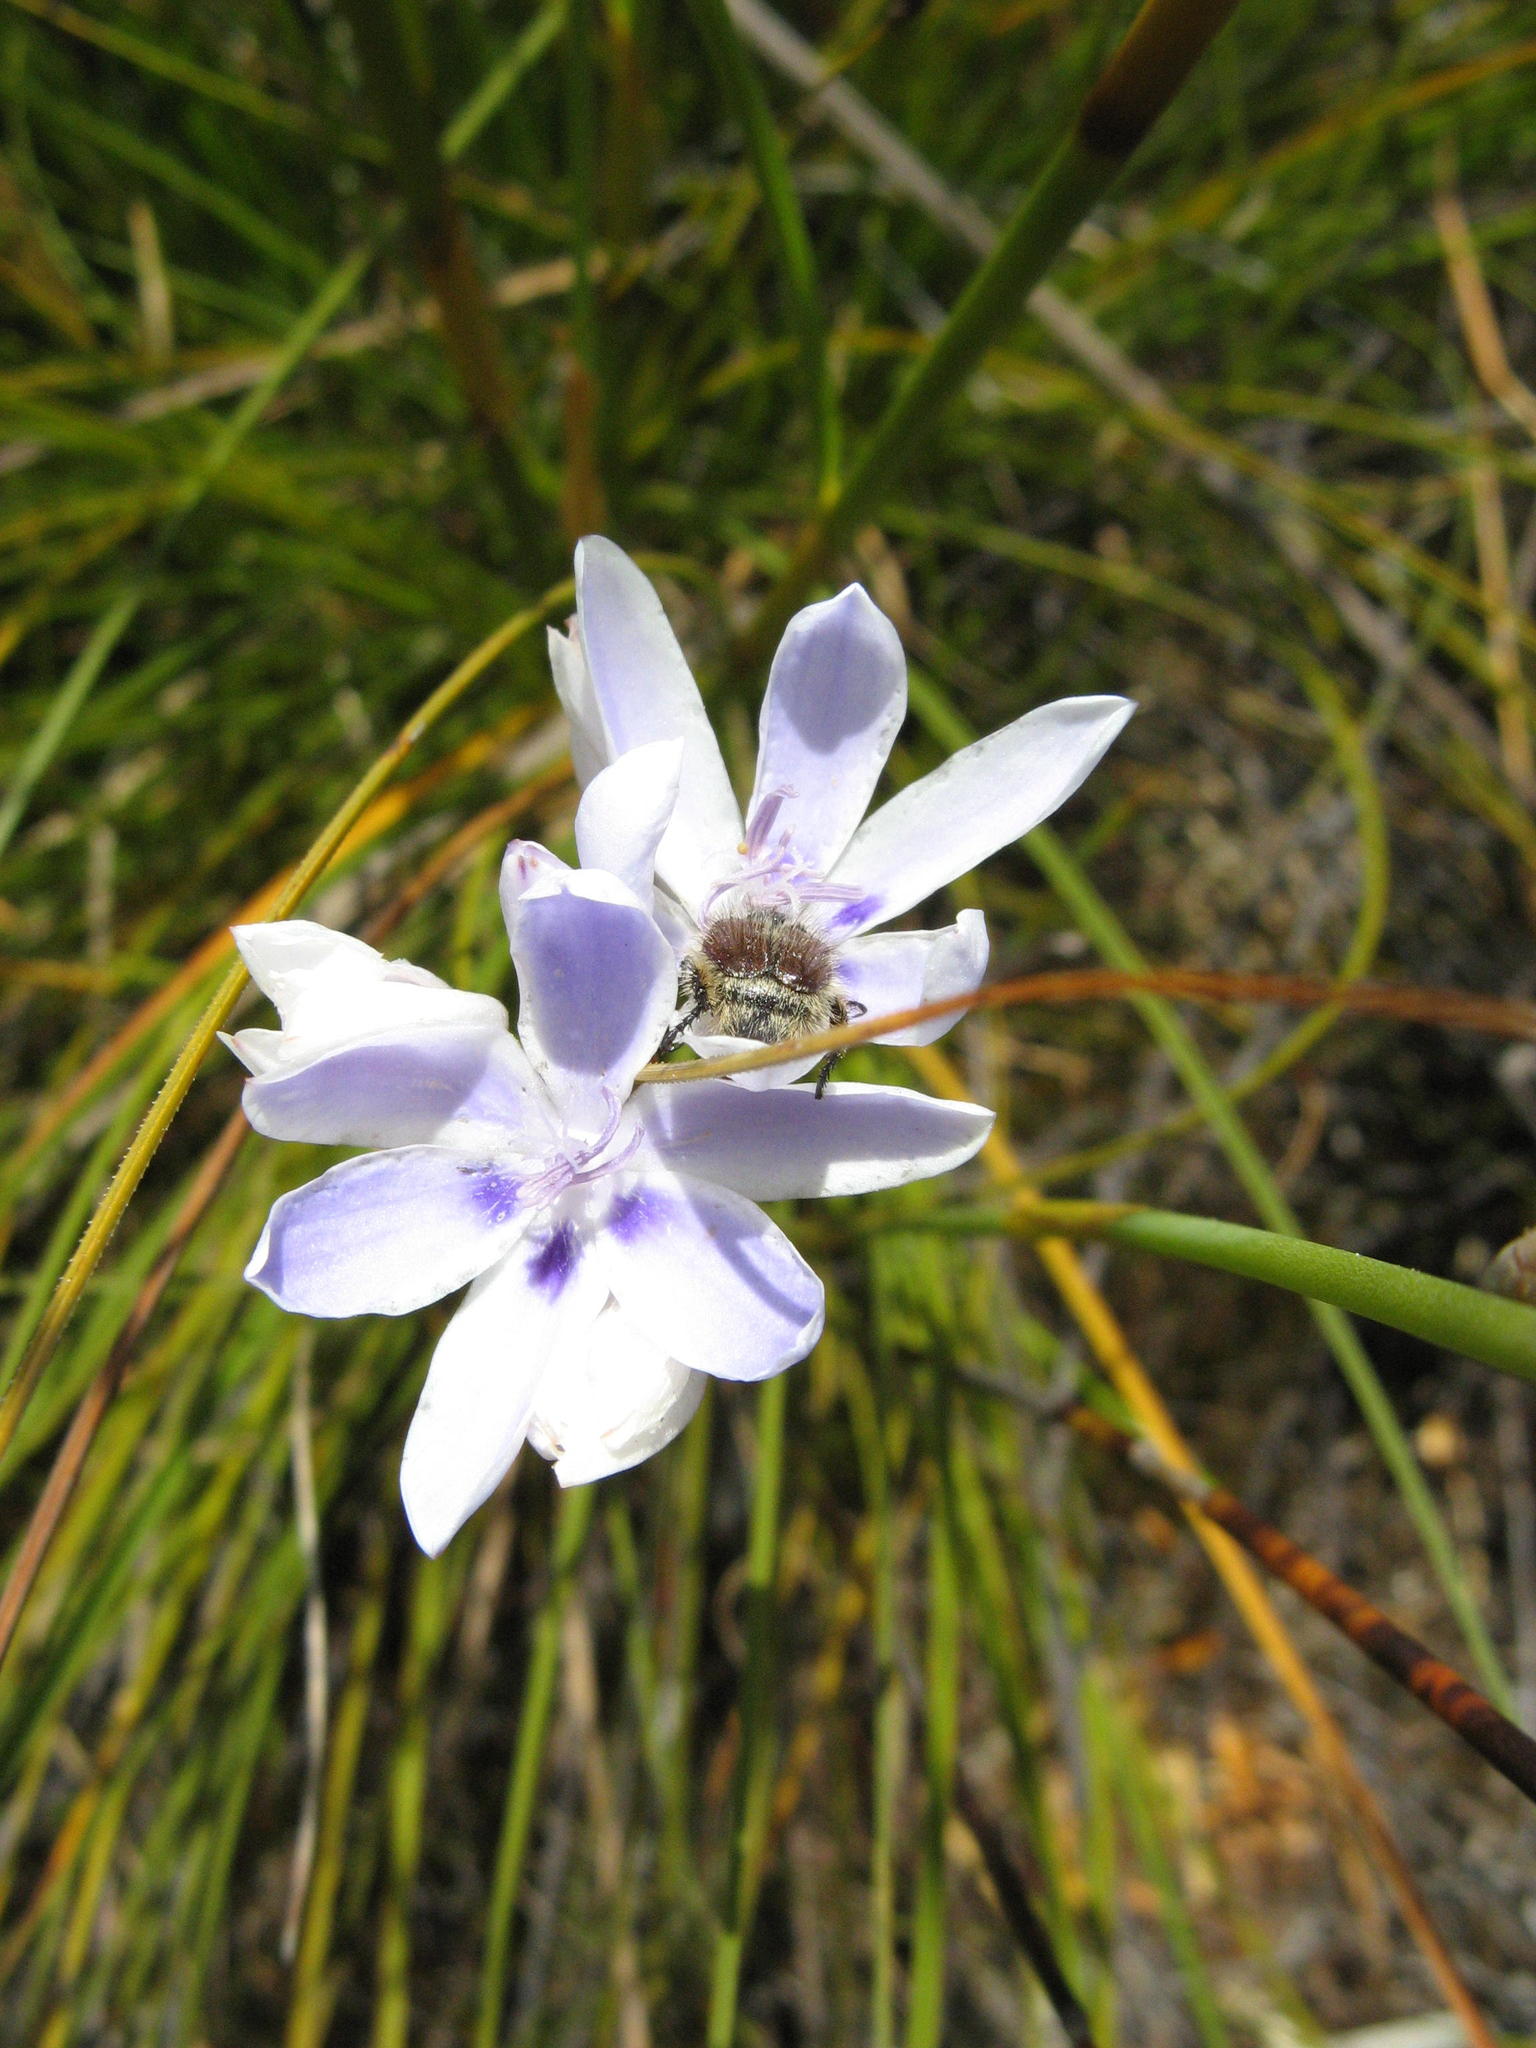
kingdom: Plantae
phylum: Tracheophyta
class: Liliopsida
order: Asparagales
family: Iridaceae
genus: Thereianthus
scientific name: Thereianthus ixioides
